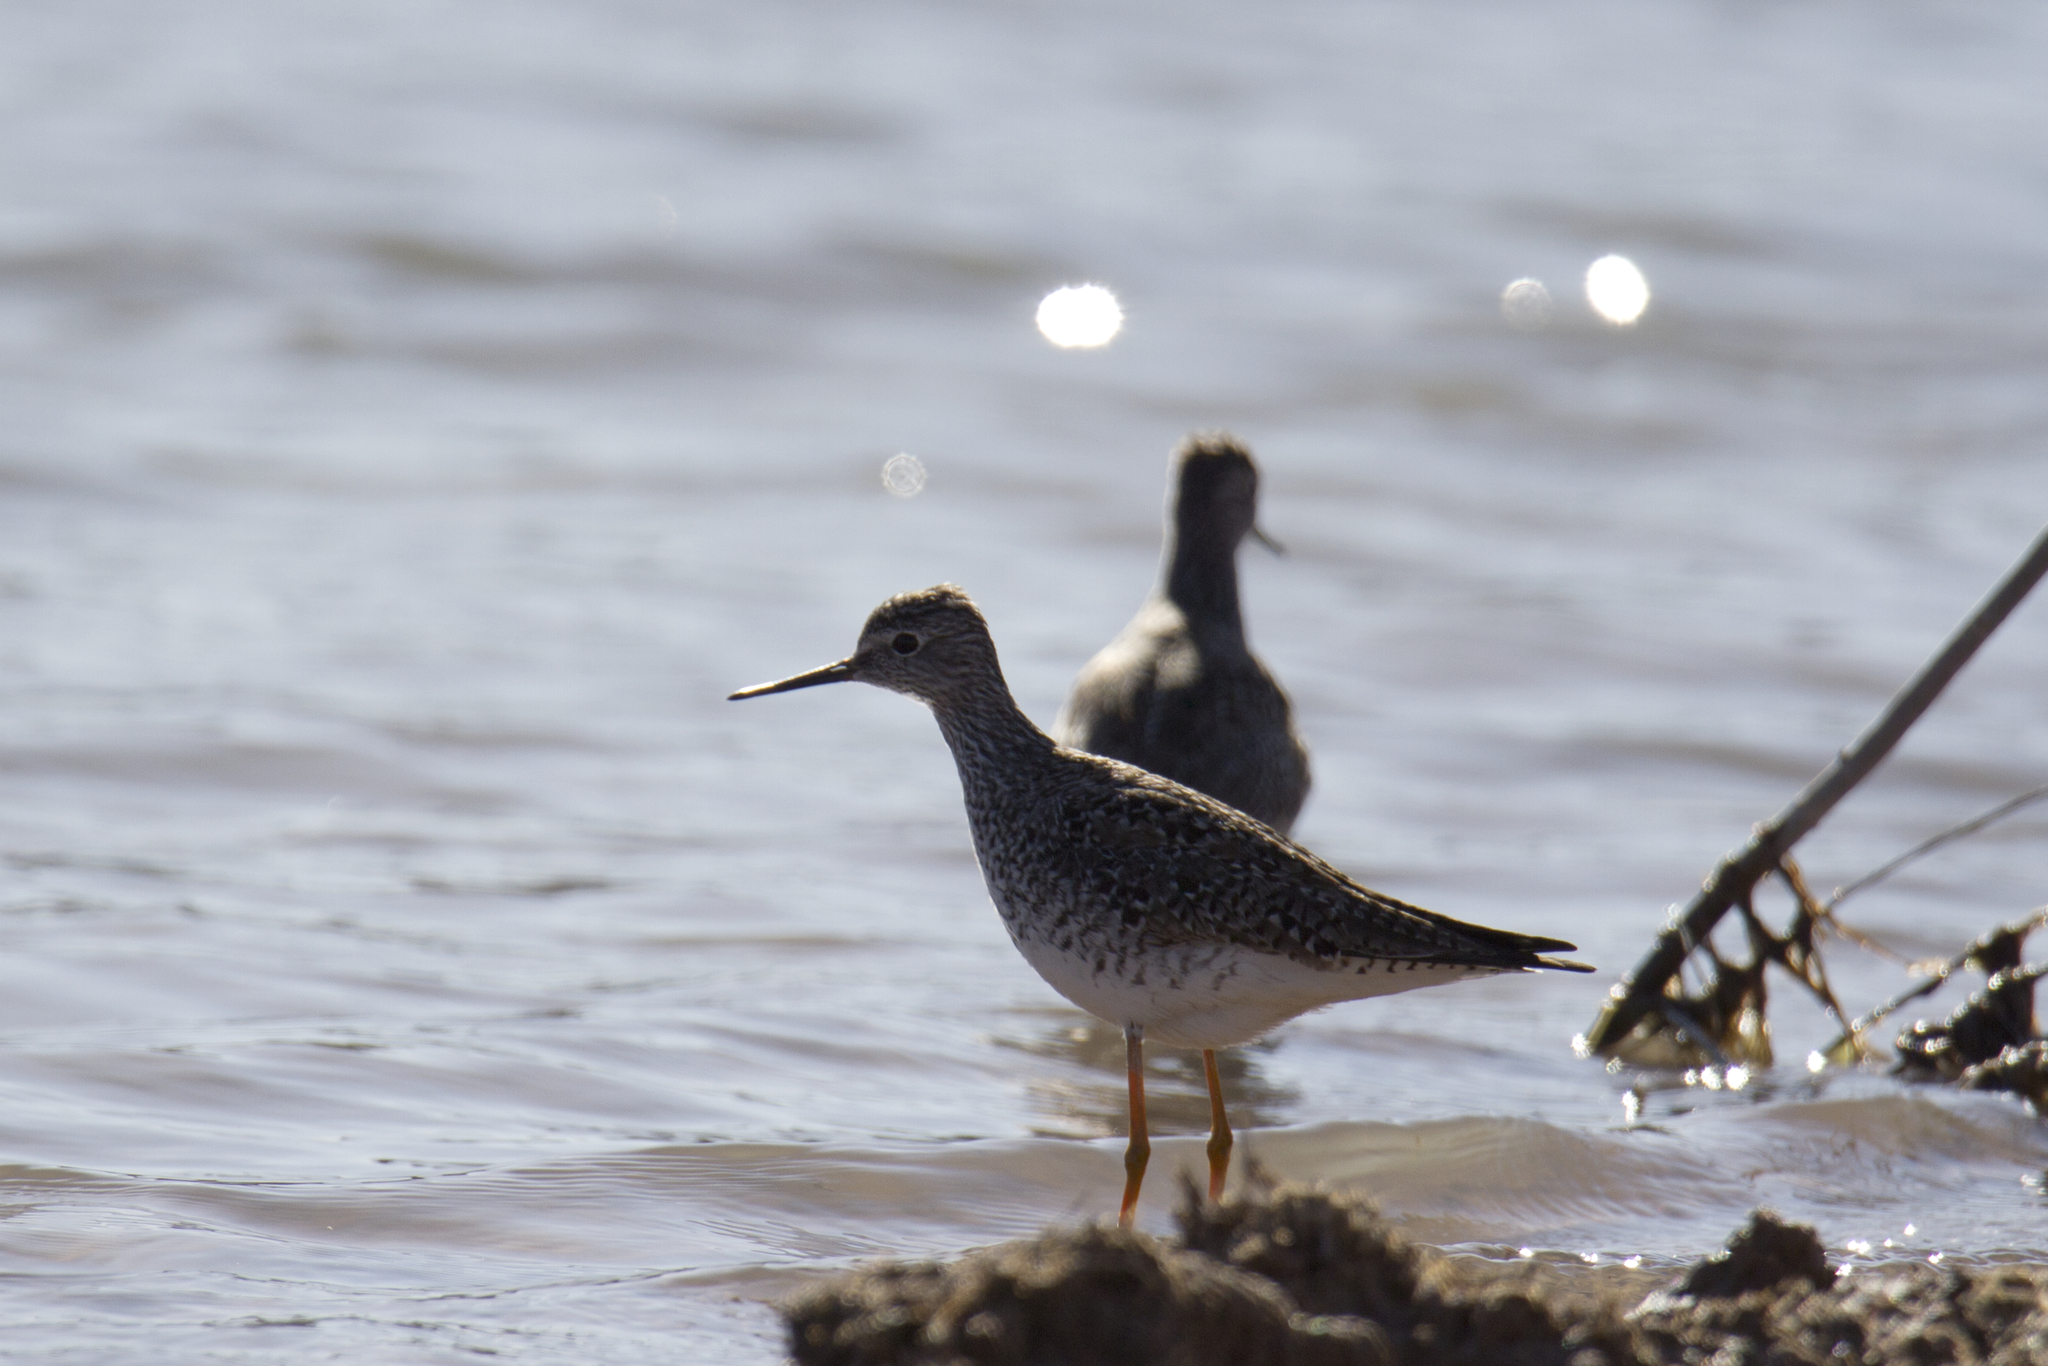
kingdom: Animalia
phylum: Chordata
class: Aves
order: Charadriiformes
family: Scolopacidae
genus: Tringa
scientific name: Tringa flavipes
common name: Lesser yellowlegs
